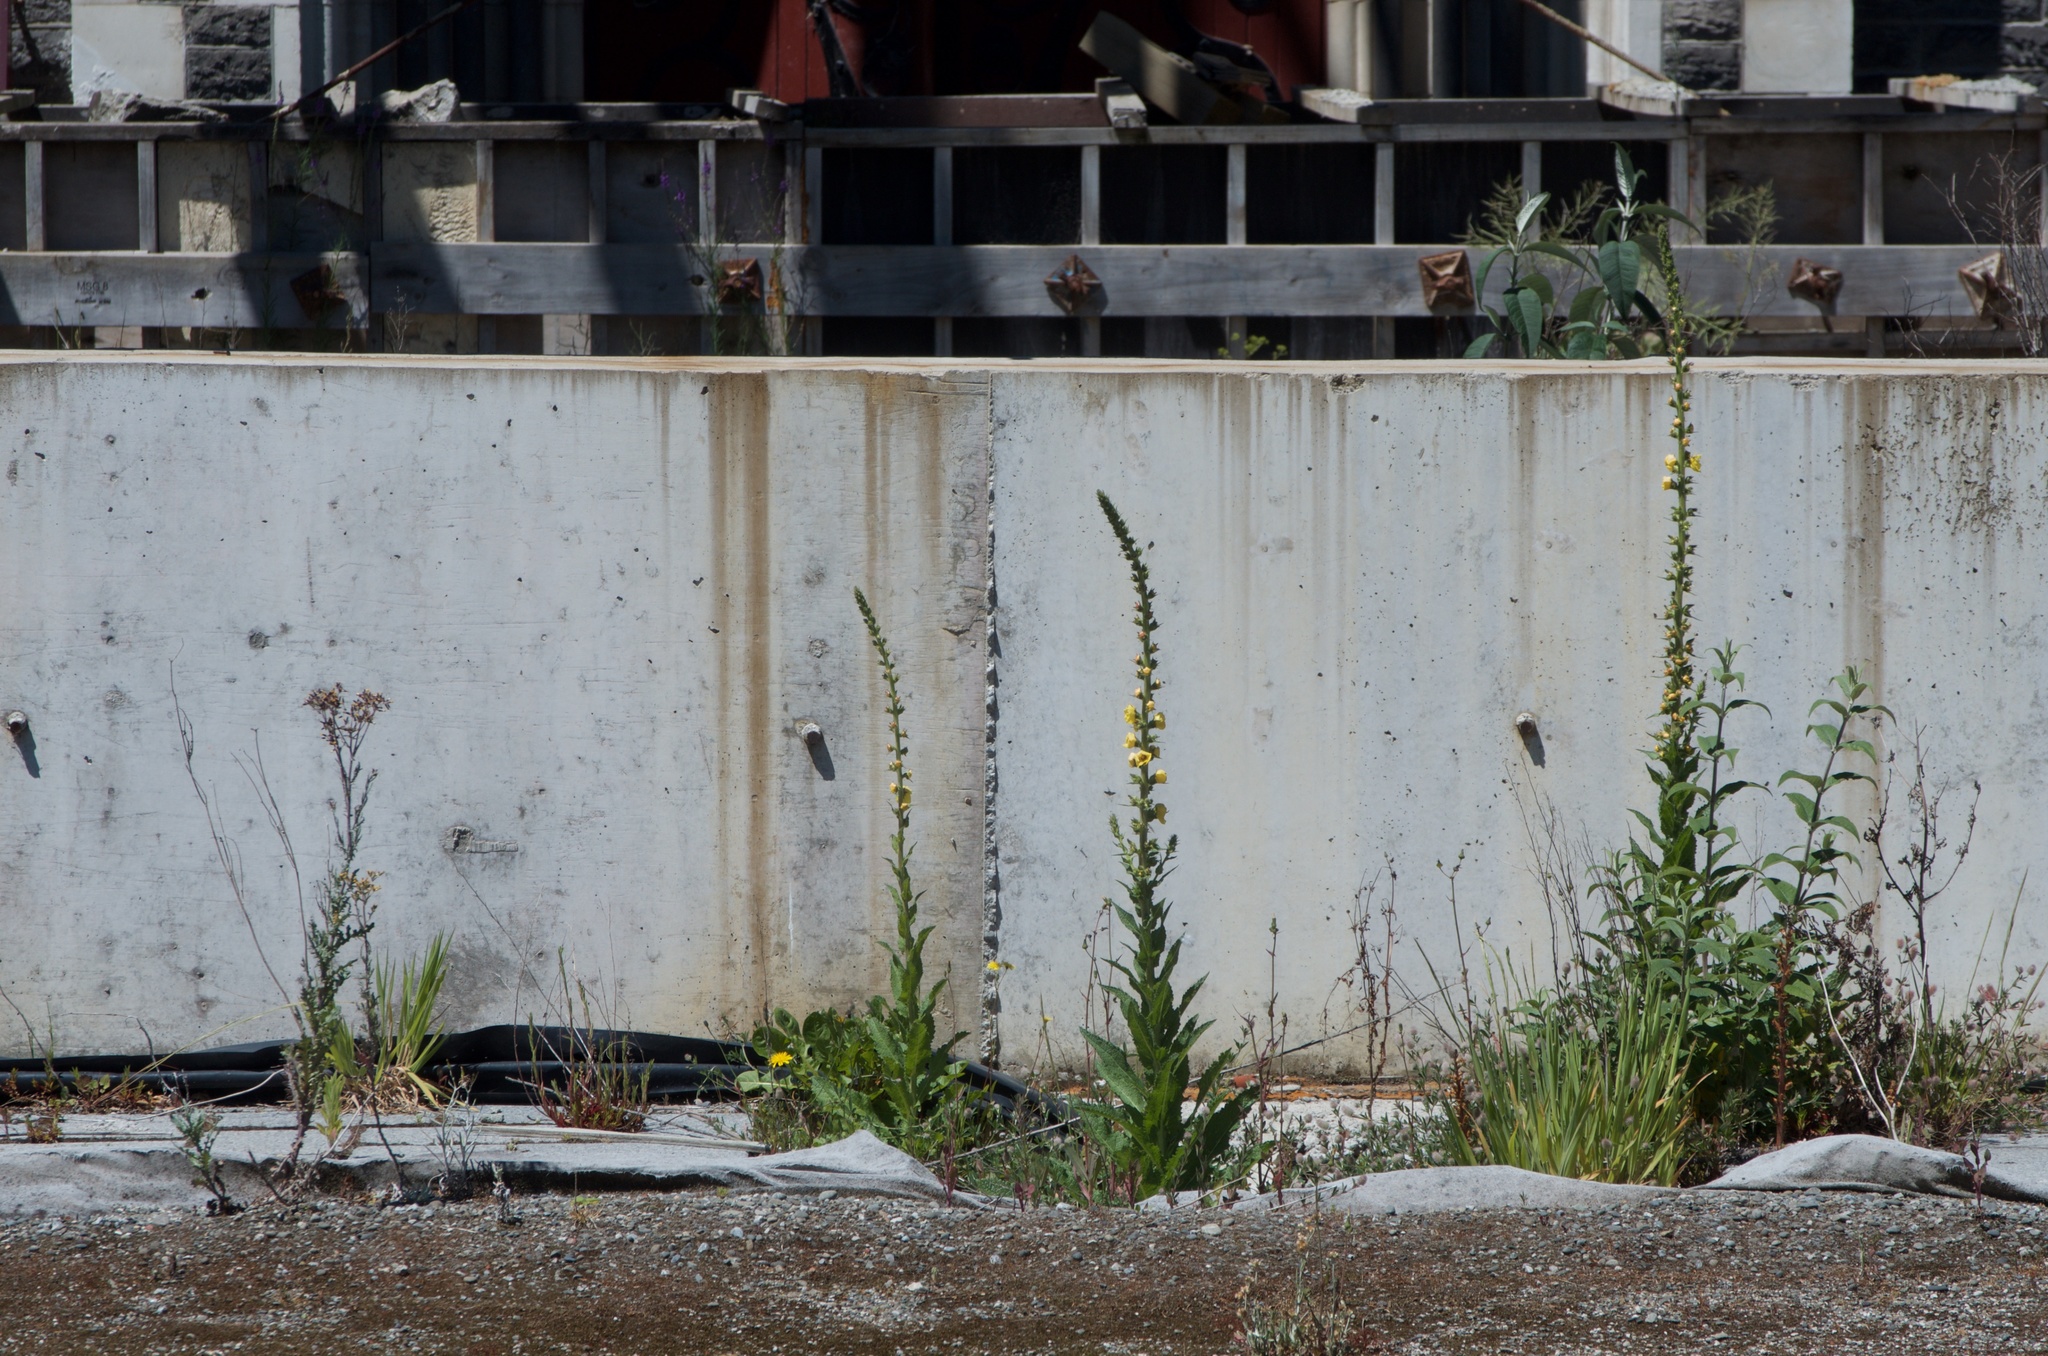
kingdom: Plantae
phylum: Tracheophyta
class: Magnoliopsida
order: Lamiales
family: Scrophulariaceae
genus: Verbascum
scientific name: Verbascum virgatum
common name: Twiggy mullein
